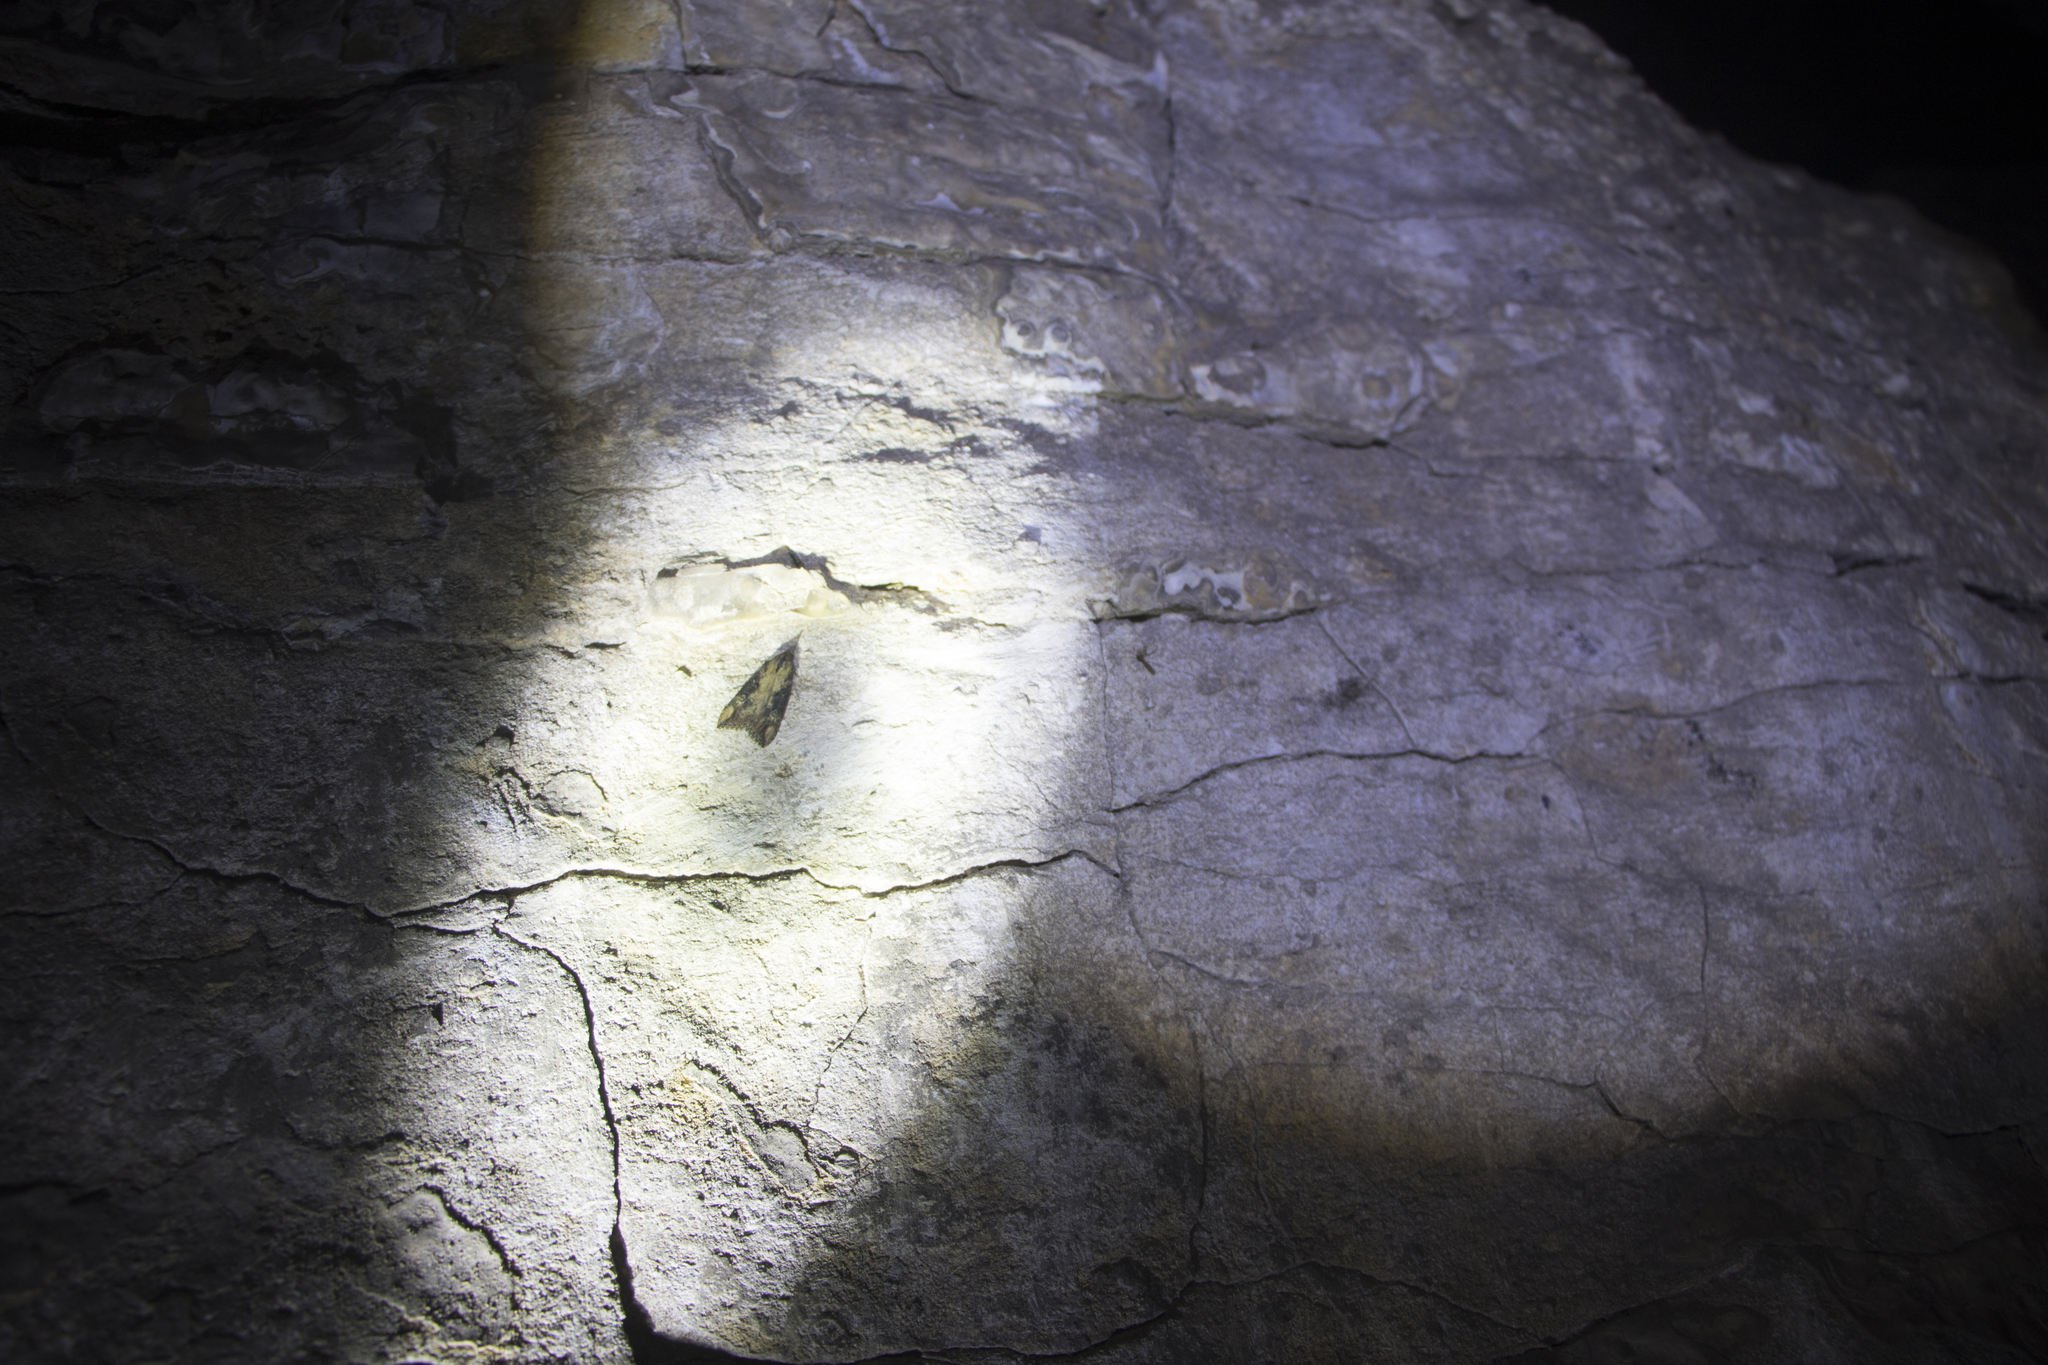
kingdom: Animalia
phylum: Arthropoda
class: Insecta
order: Lepidoptera
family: Erebidae
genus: Hypena
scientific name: Hypena obesalis
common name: Paignton snout
